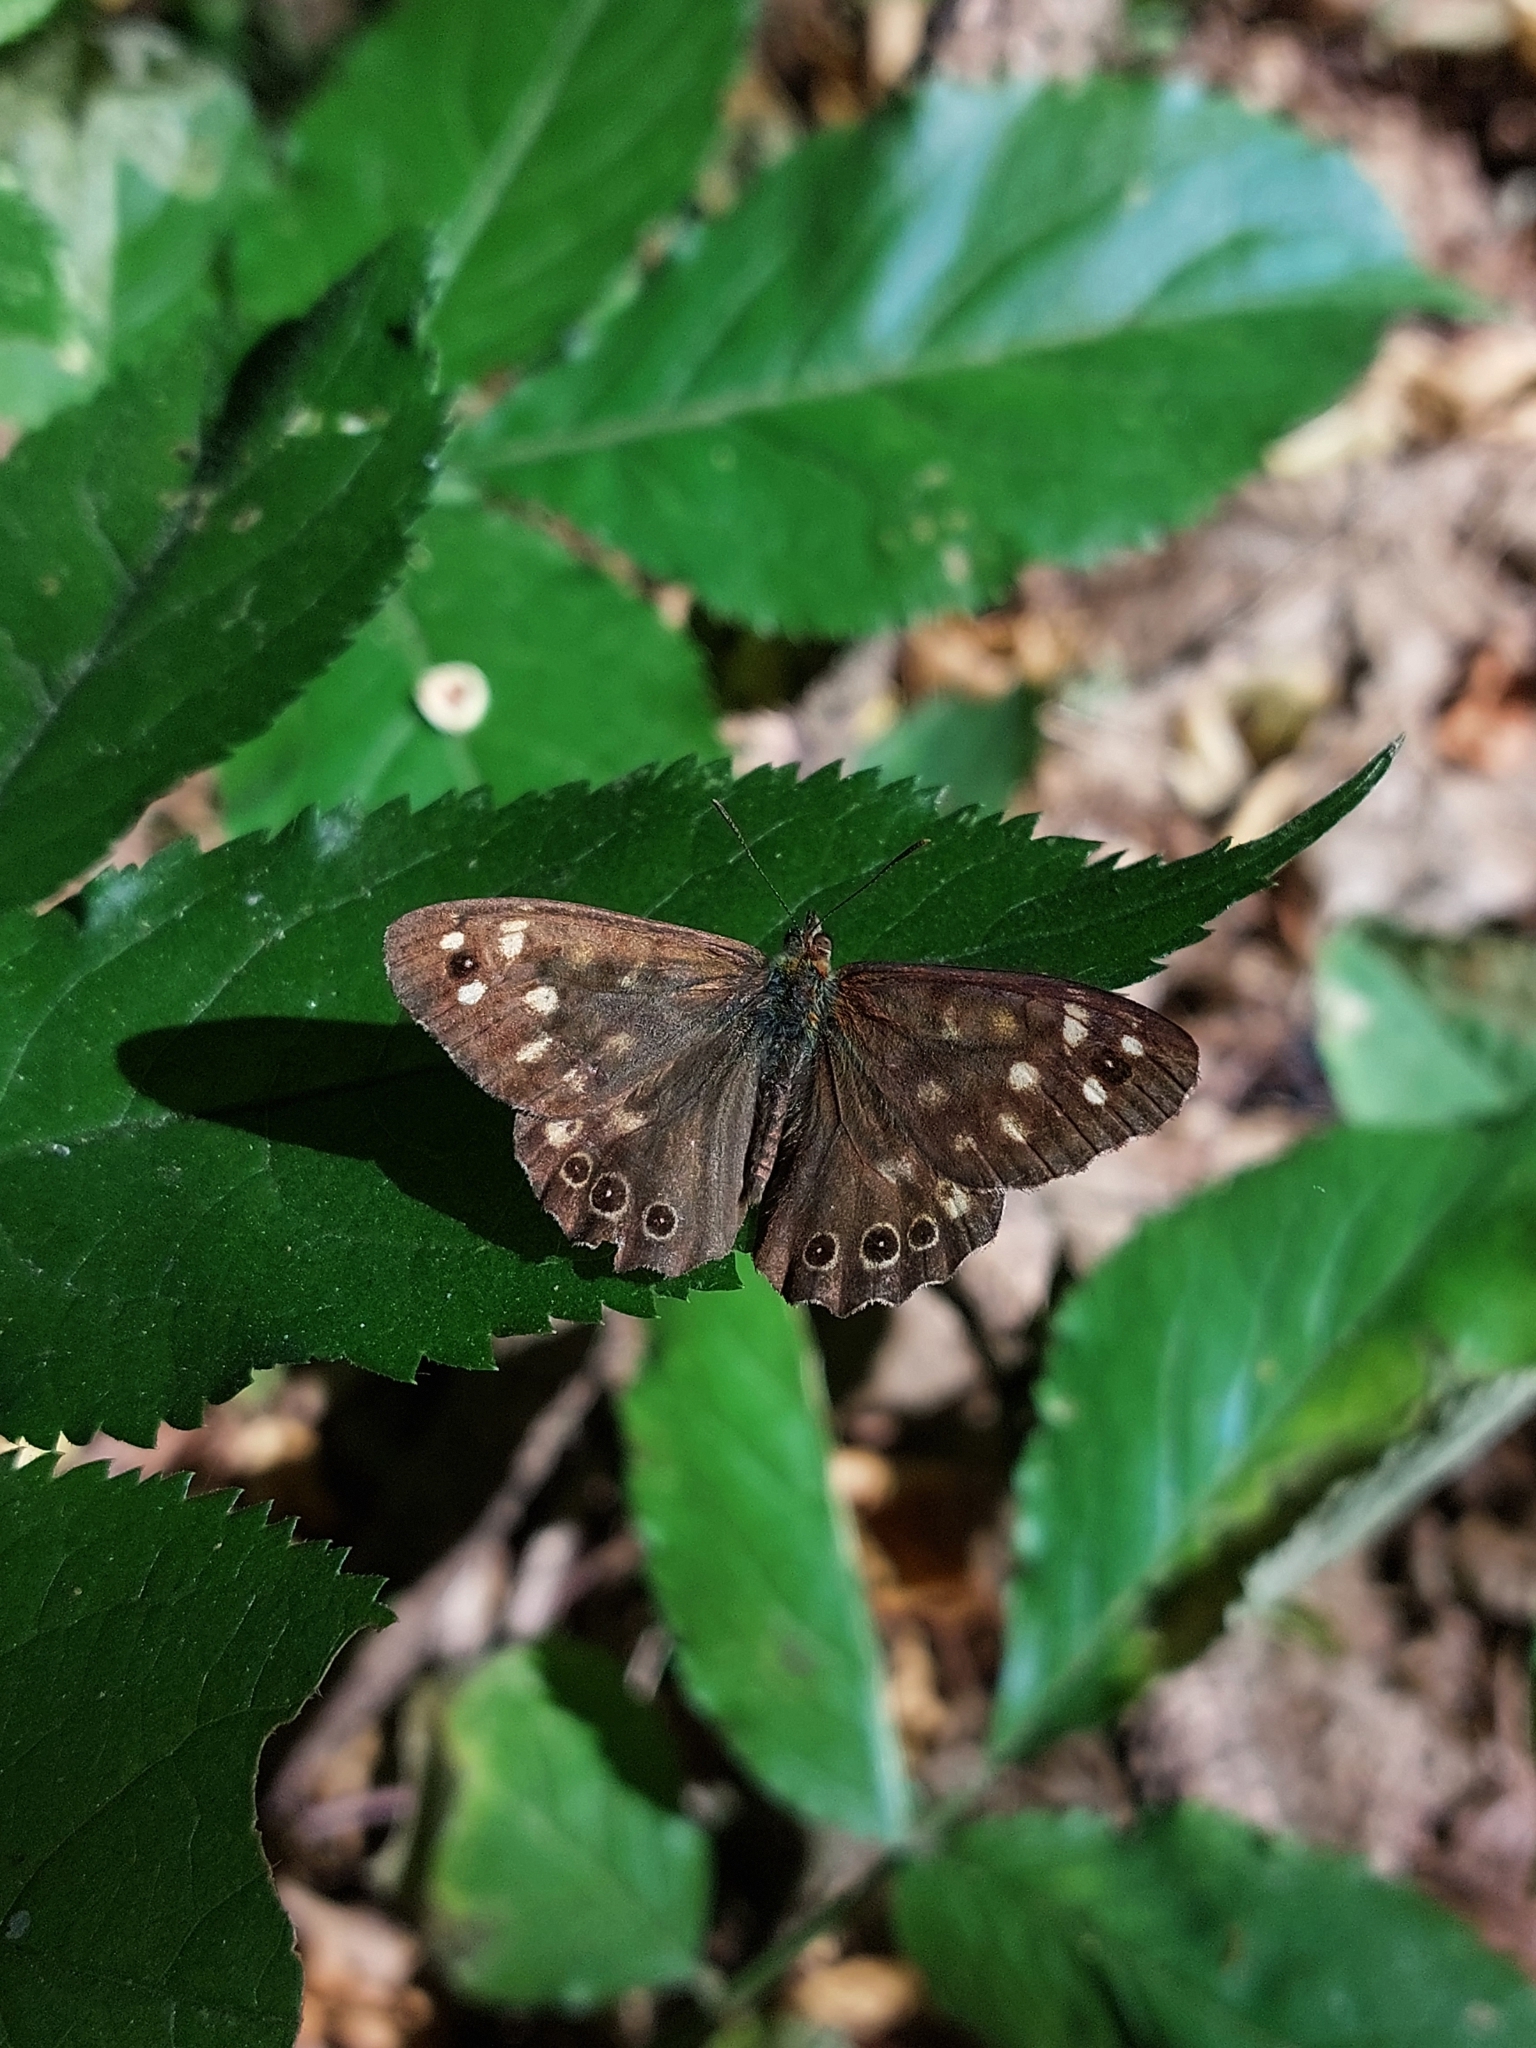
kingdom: Animalia
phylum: Arthropoda
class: Insecta
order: Lepidoptera
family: Nymphalidae
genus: Pararge
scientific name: Pararge aegeria
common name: Speckled wood
